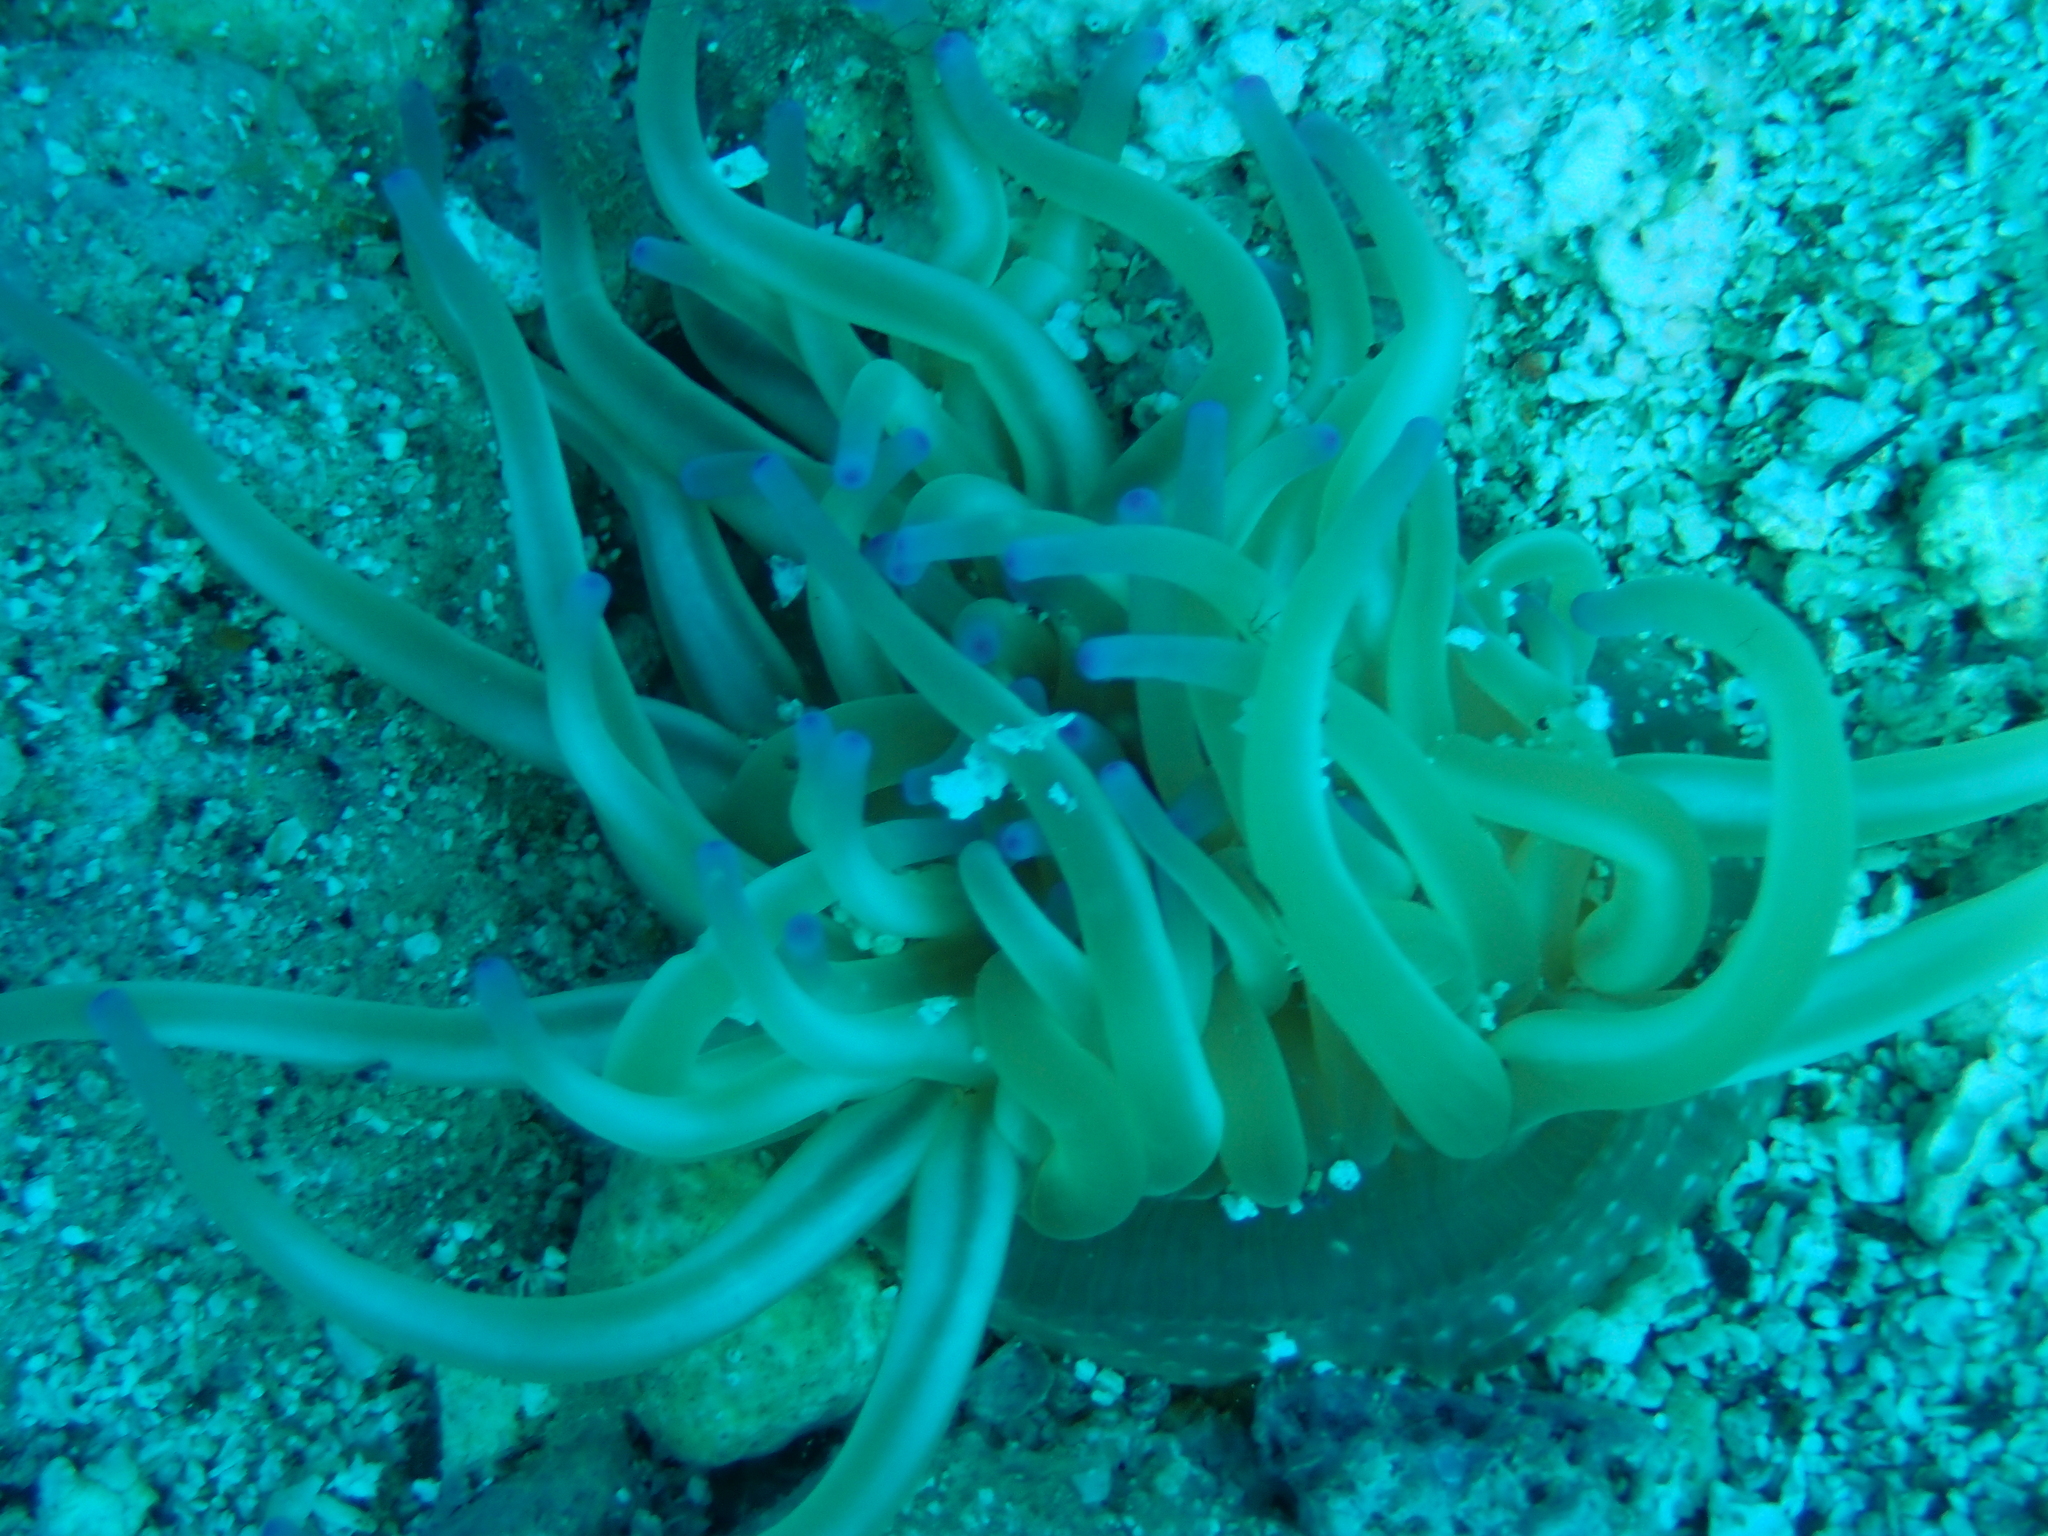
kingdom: Animalia
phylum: Cnidaria
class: Anthozoa
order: Actiniaria
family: Actiniidae
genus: Condylactis
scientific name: Condylactis aurantiaca
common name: Golden anemone
